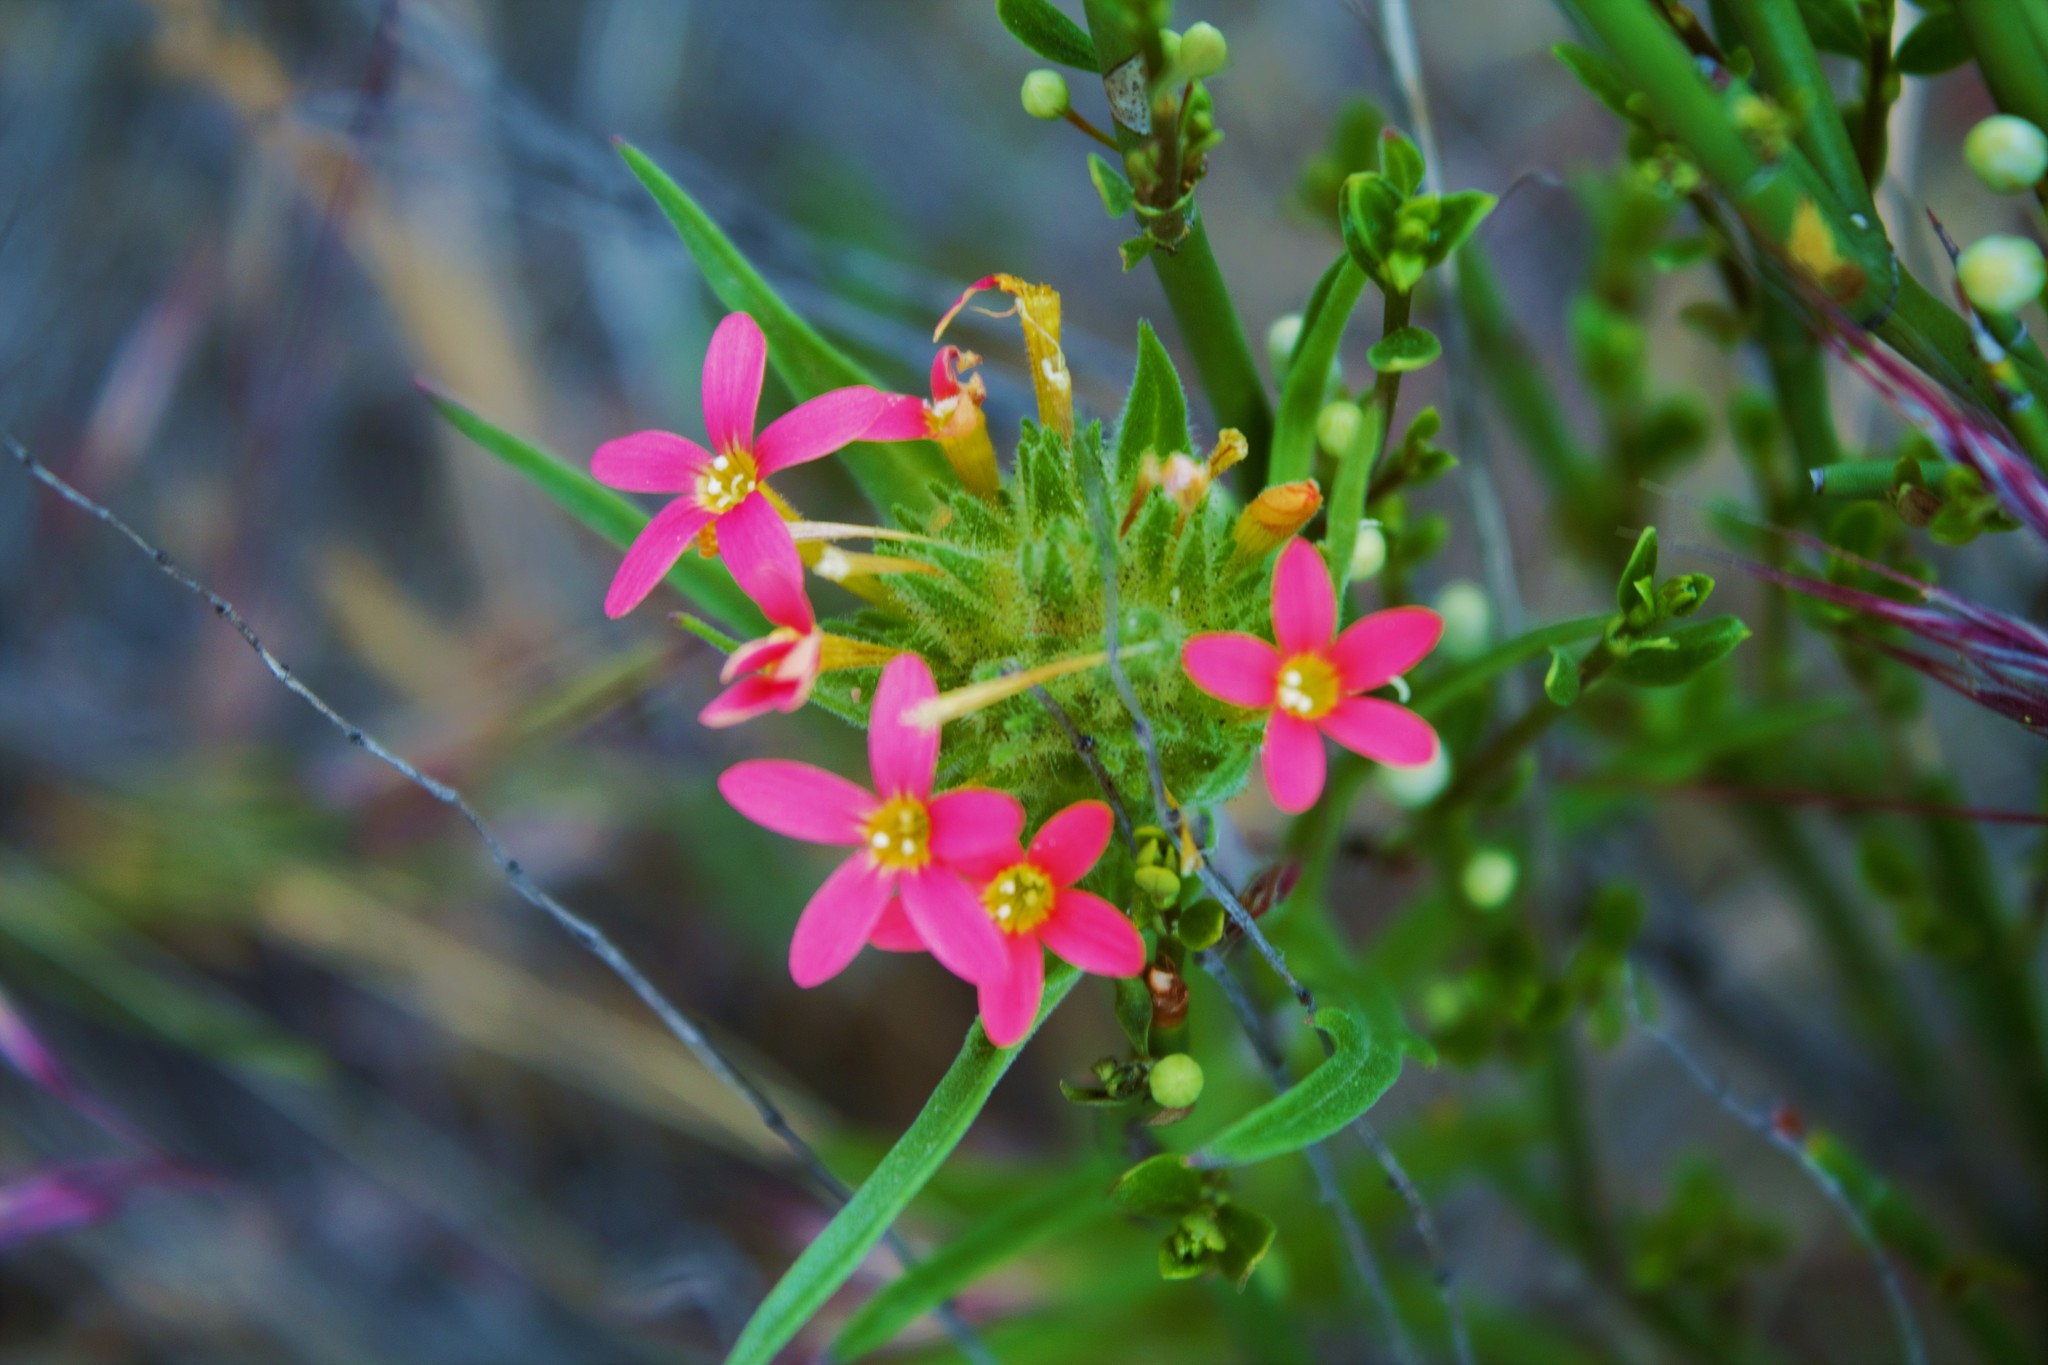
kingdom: Plantae
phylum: Tracheophyta
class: Magnoliopsida
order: Ericales
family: Polemoniaceae
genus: Collomia
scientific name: Collomia biflora
